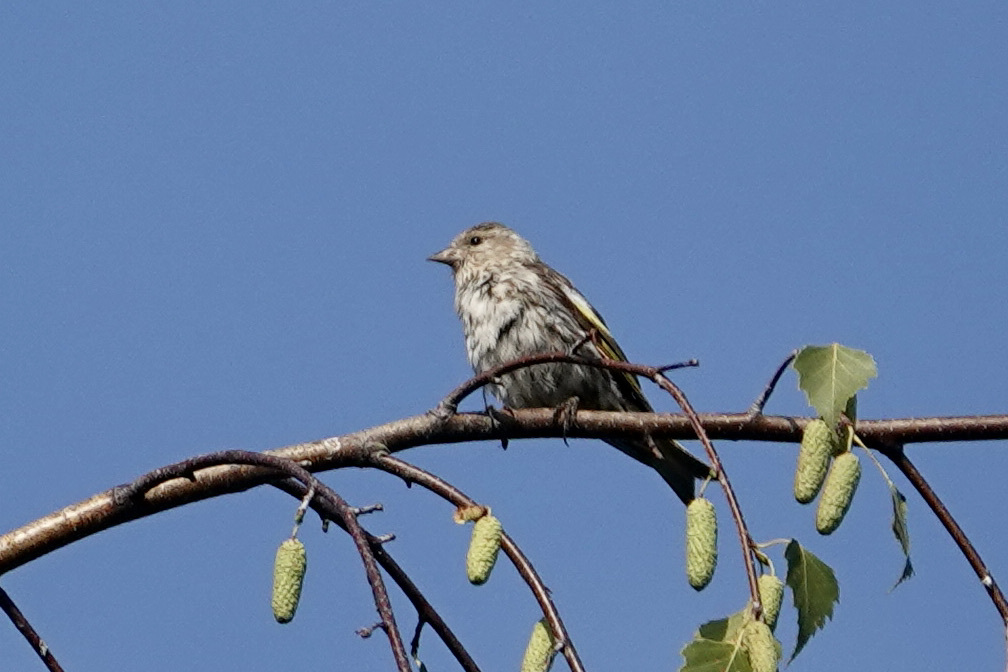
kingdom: Animalia
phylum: Chordata
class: Aves
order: Passeriformes
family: Fringillidae
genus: Spinus
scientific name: Spinus pinus
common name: Pine siskin
